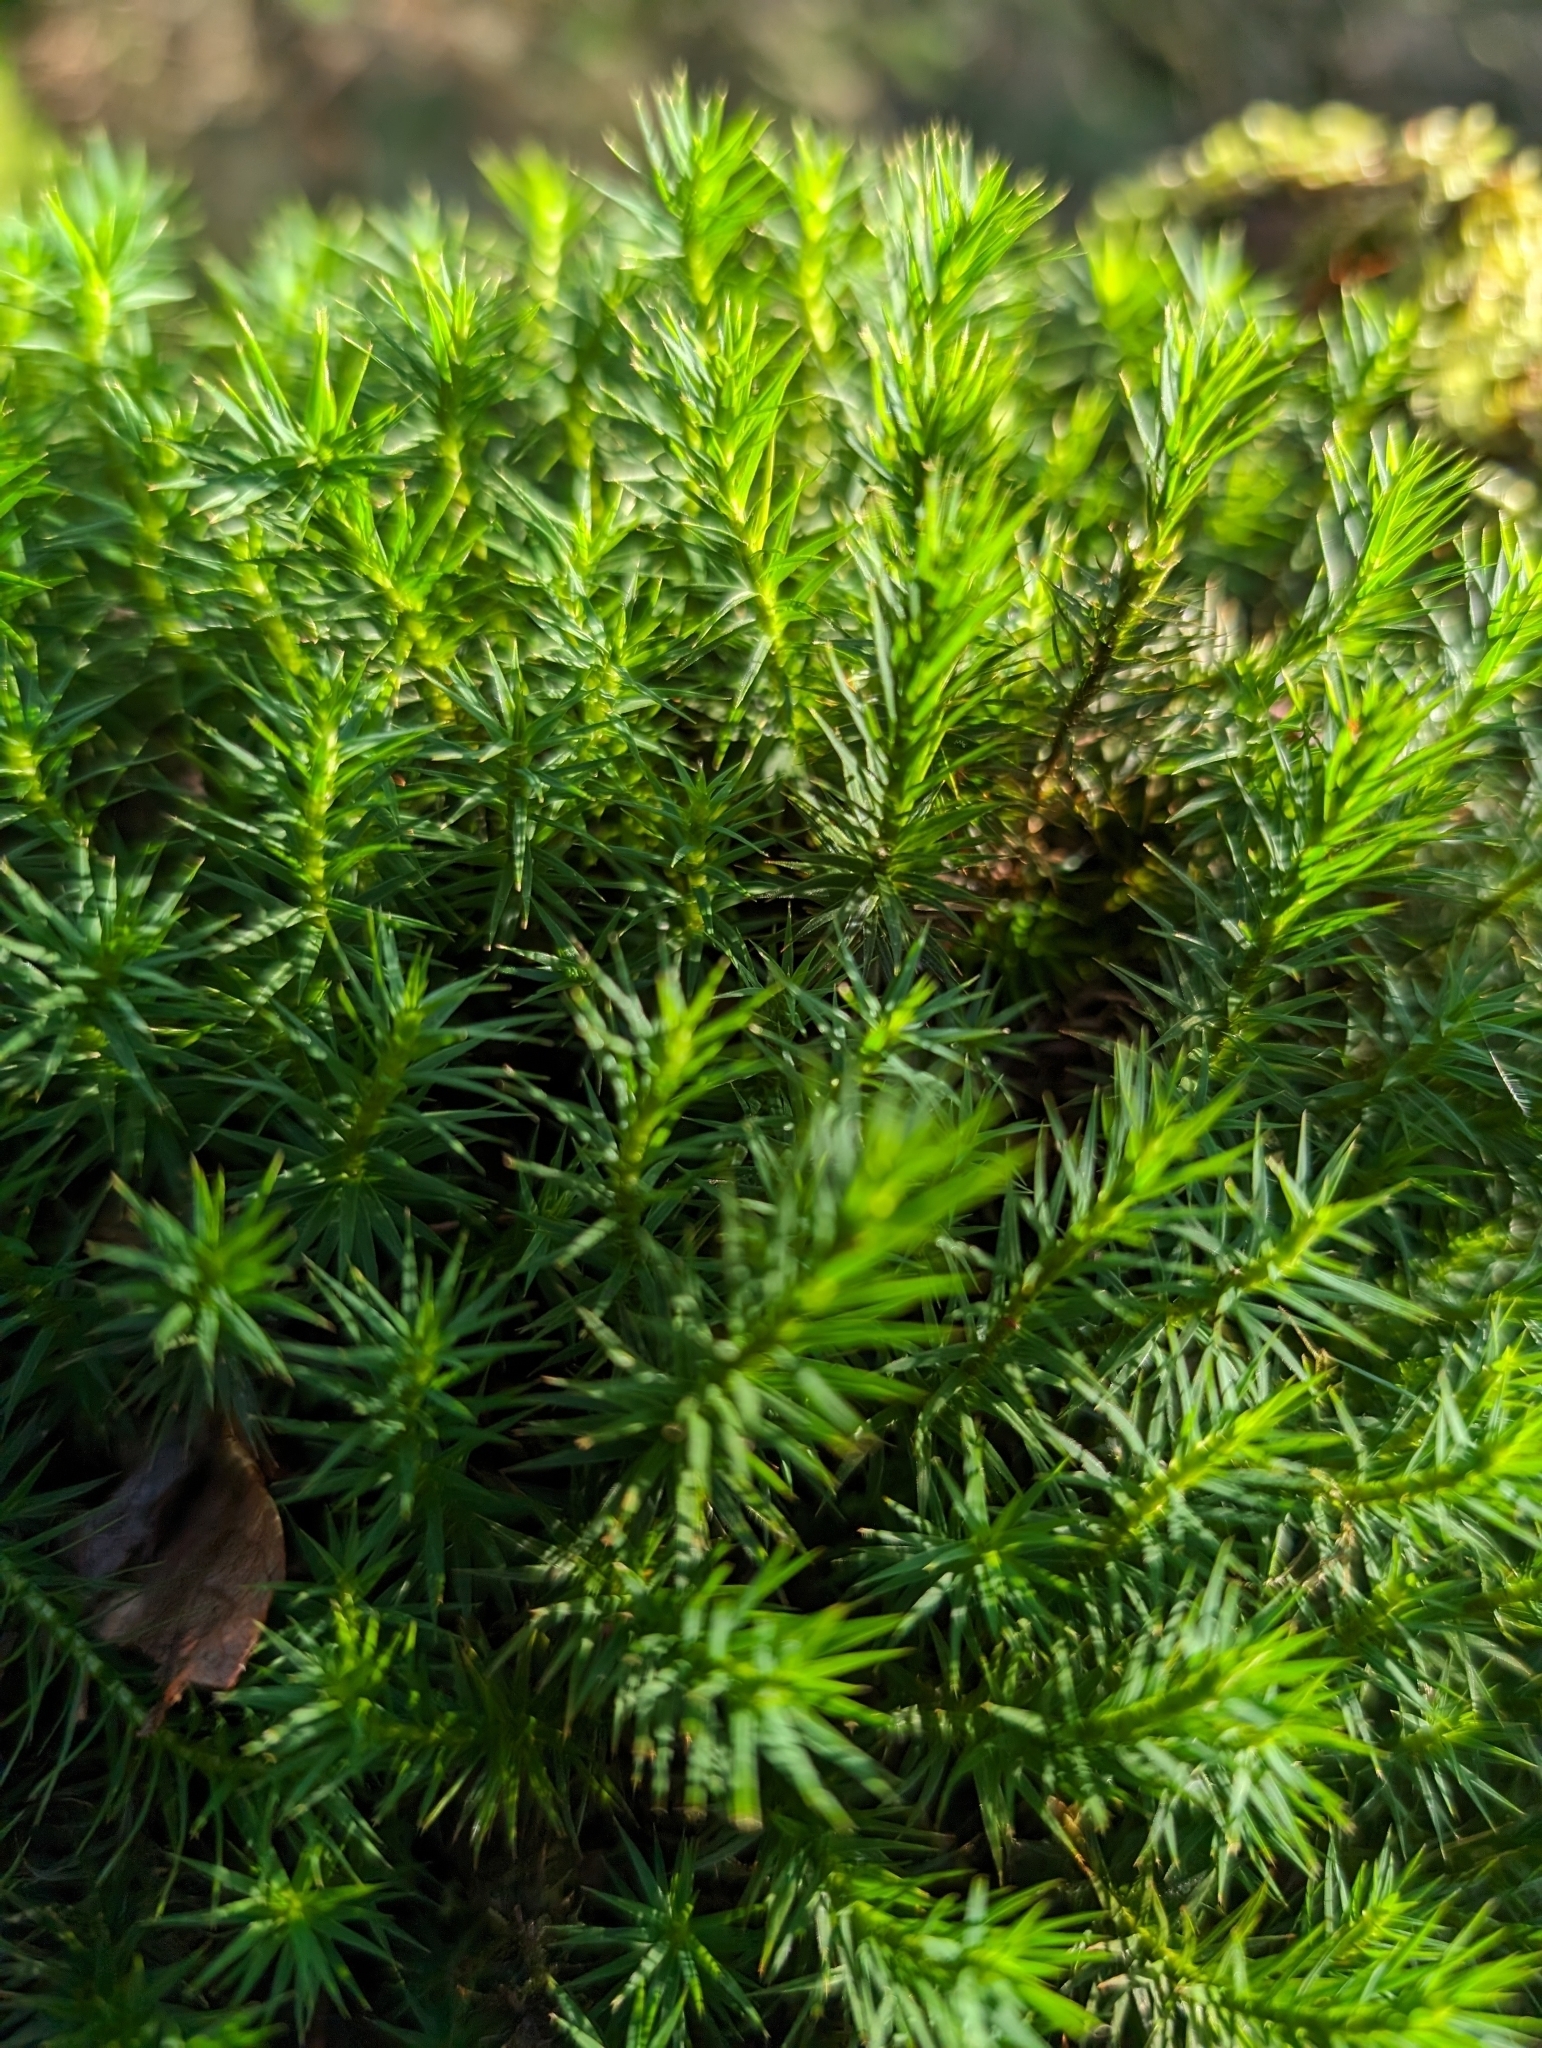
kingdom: Plantae
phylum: Bryophyta
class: Polytrichopsida
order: Polytrichales
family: Polytrichaceae
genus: Polytrichum
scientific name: Polytrichum formosum
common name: Bank haircap moss
